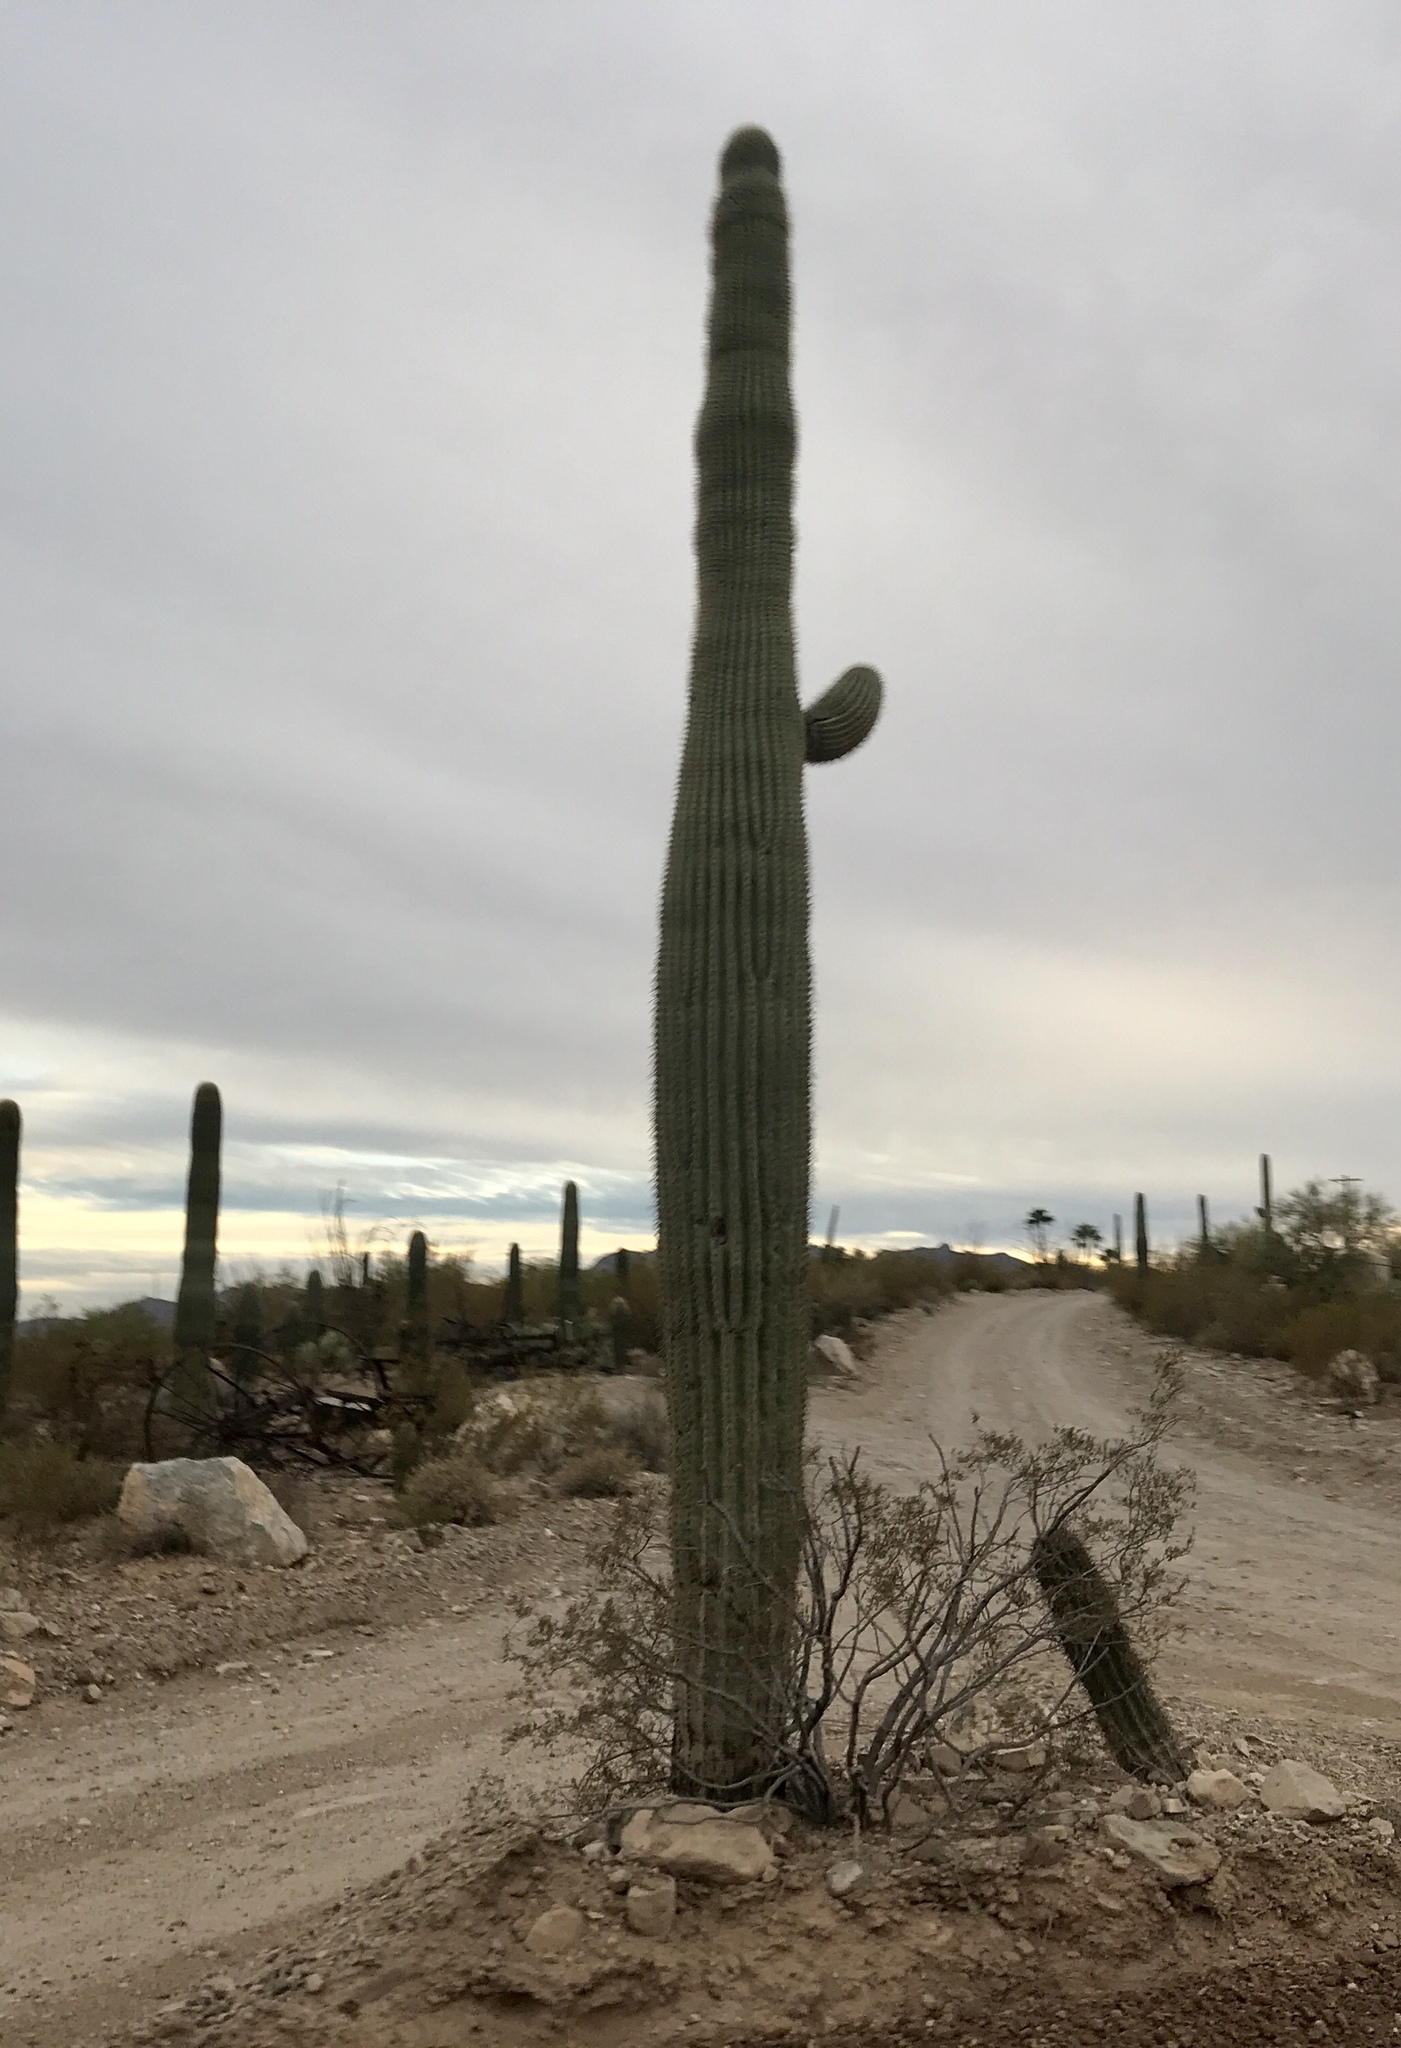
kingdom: Plantae
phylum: Tracheophyta
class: Magnoliopsida
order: Caryophyllales
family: Cactaceae
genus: Carnegiea
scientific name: Carnegiea gigantea
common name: Saguaro
